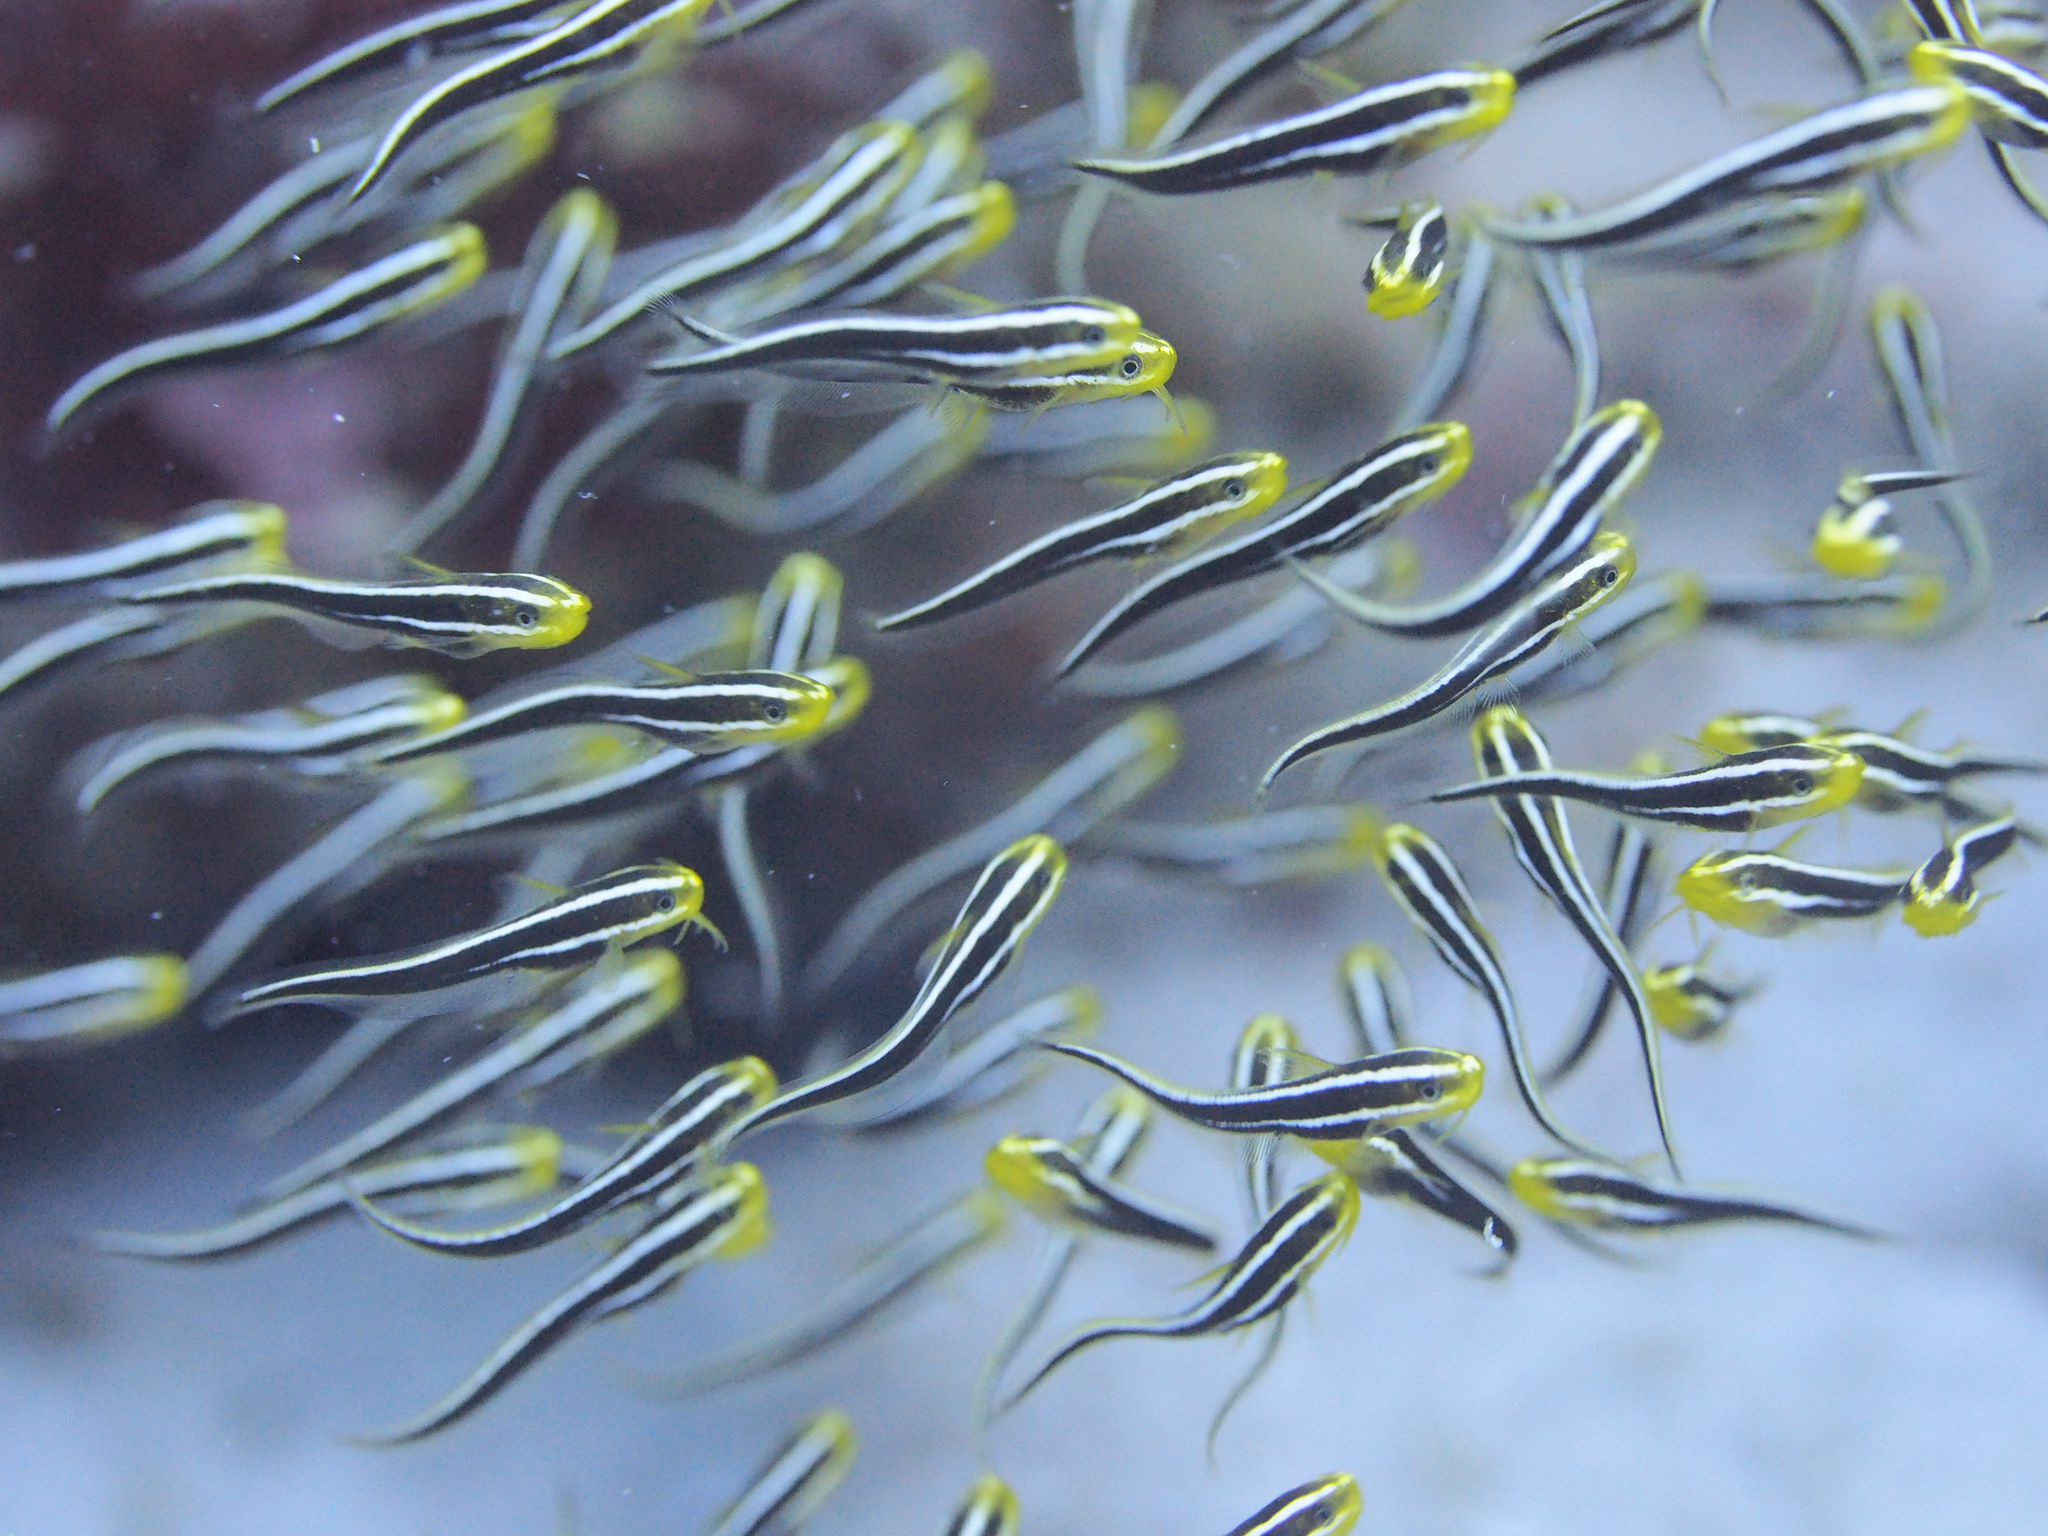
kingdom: Animalia
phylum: Chordata
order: Siluriformes
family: Plotosidae
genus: Plotosus
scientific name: Plotosus lineatus
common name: Striped eel catfish
